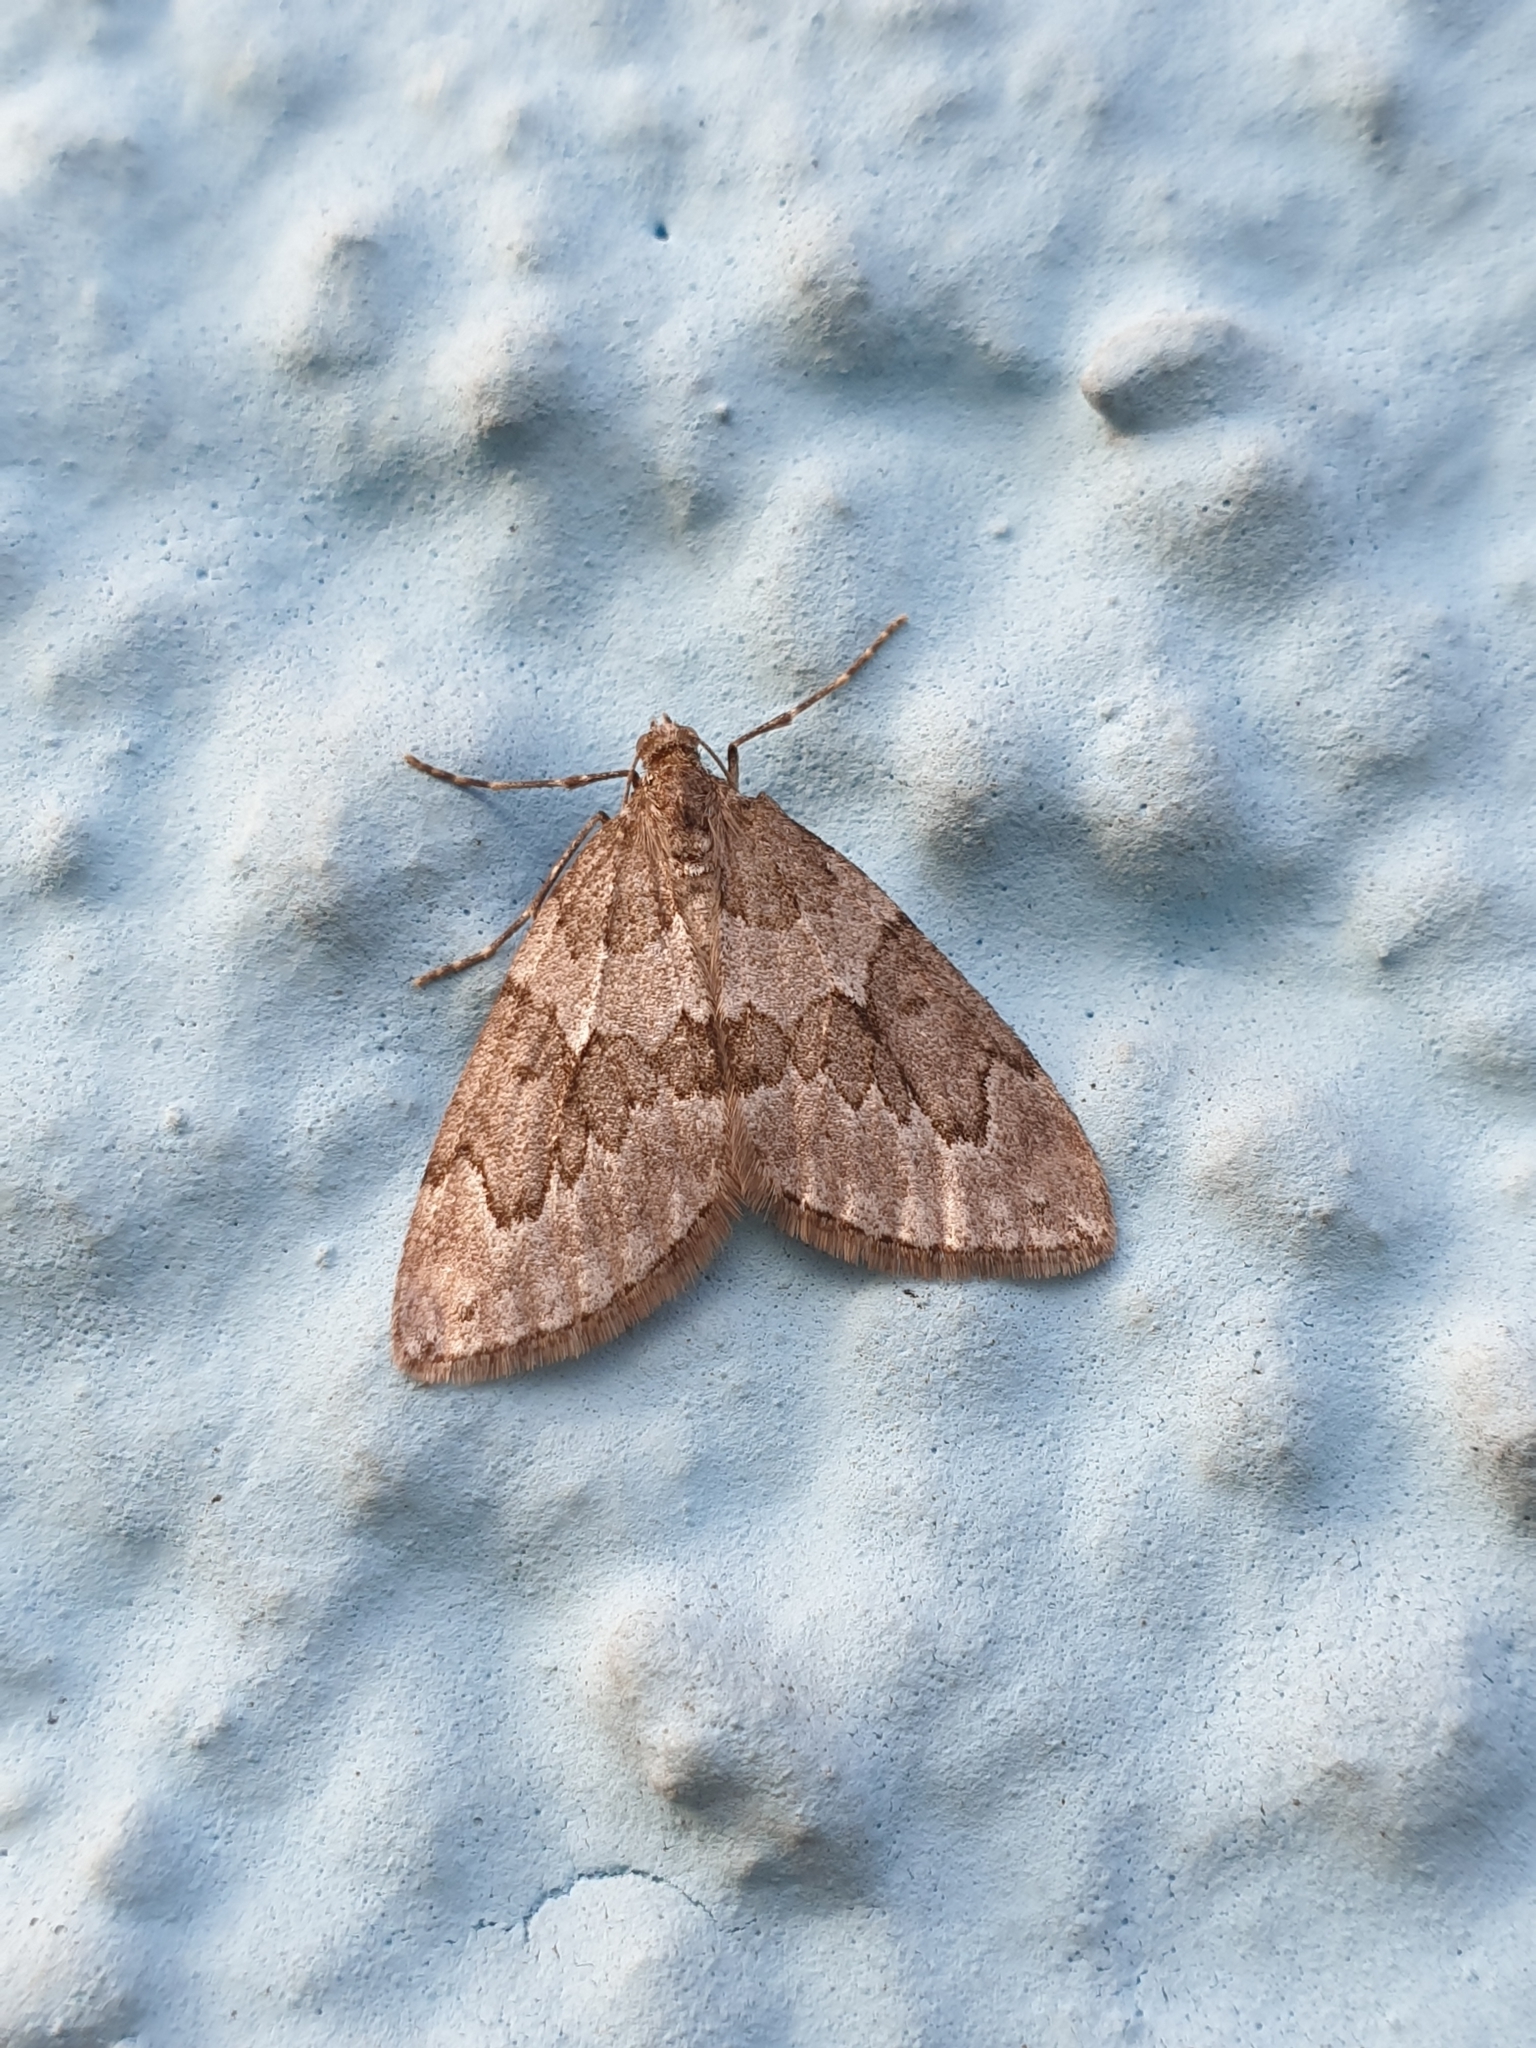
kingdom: Animalia
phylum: Arthropoda
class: Insecta
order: Lepidoptera
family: Geometridae
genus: Thera
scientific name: Thera juniperata
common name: Juniper carpet
